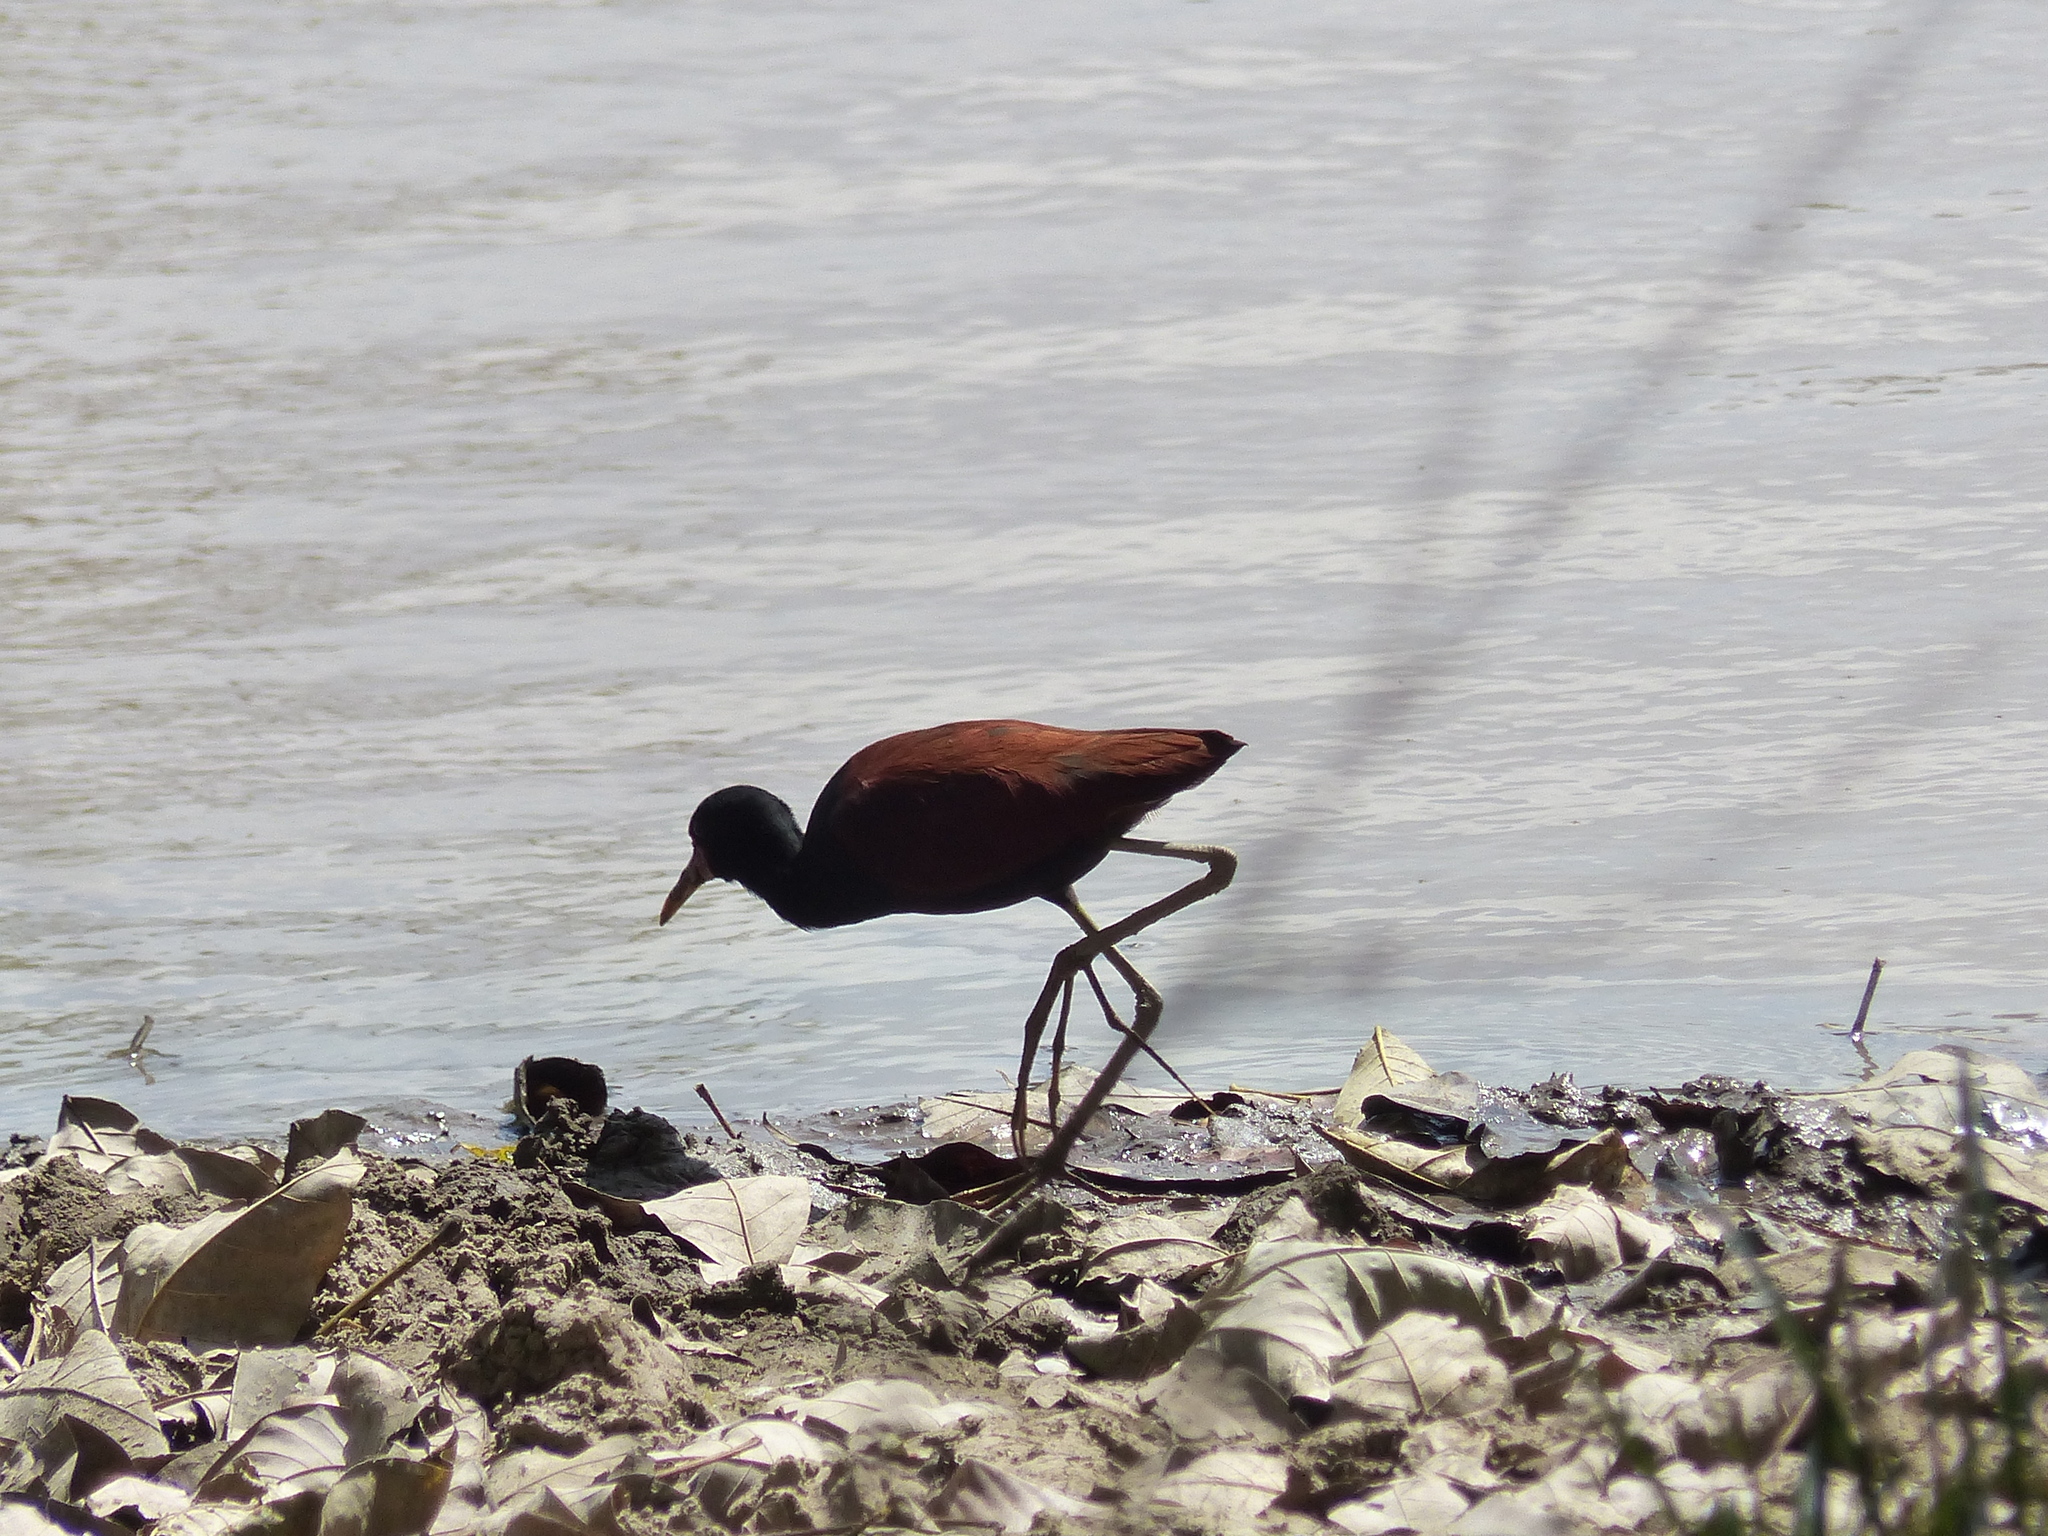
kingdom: Animalia
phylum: Chordata
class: Aves
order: Charadriiformes
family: Jacanidae
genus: Jacana
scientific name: Jacana jacana
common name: Wattled jacana
